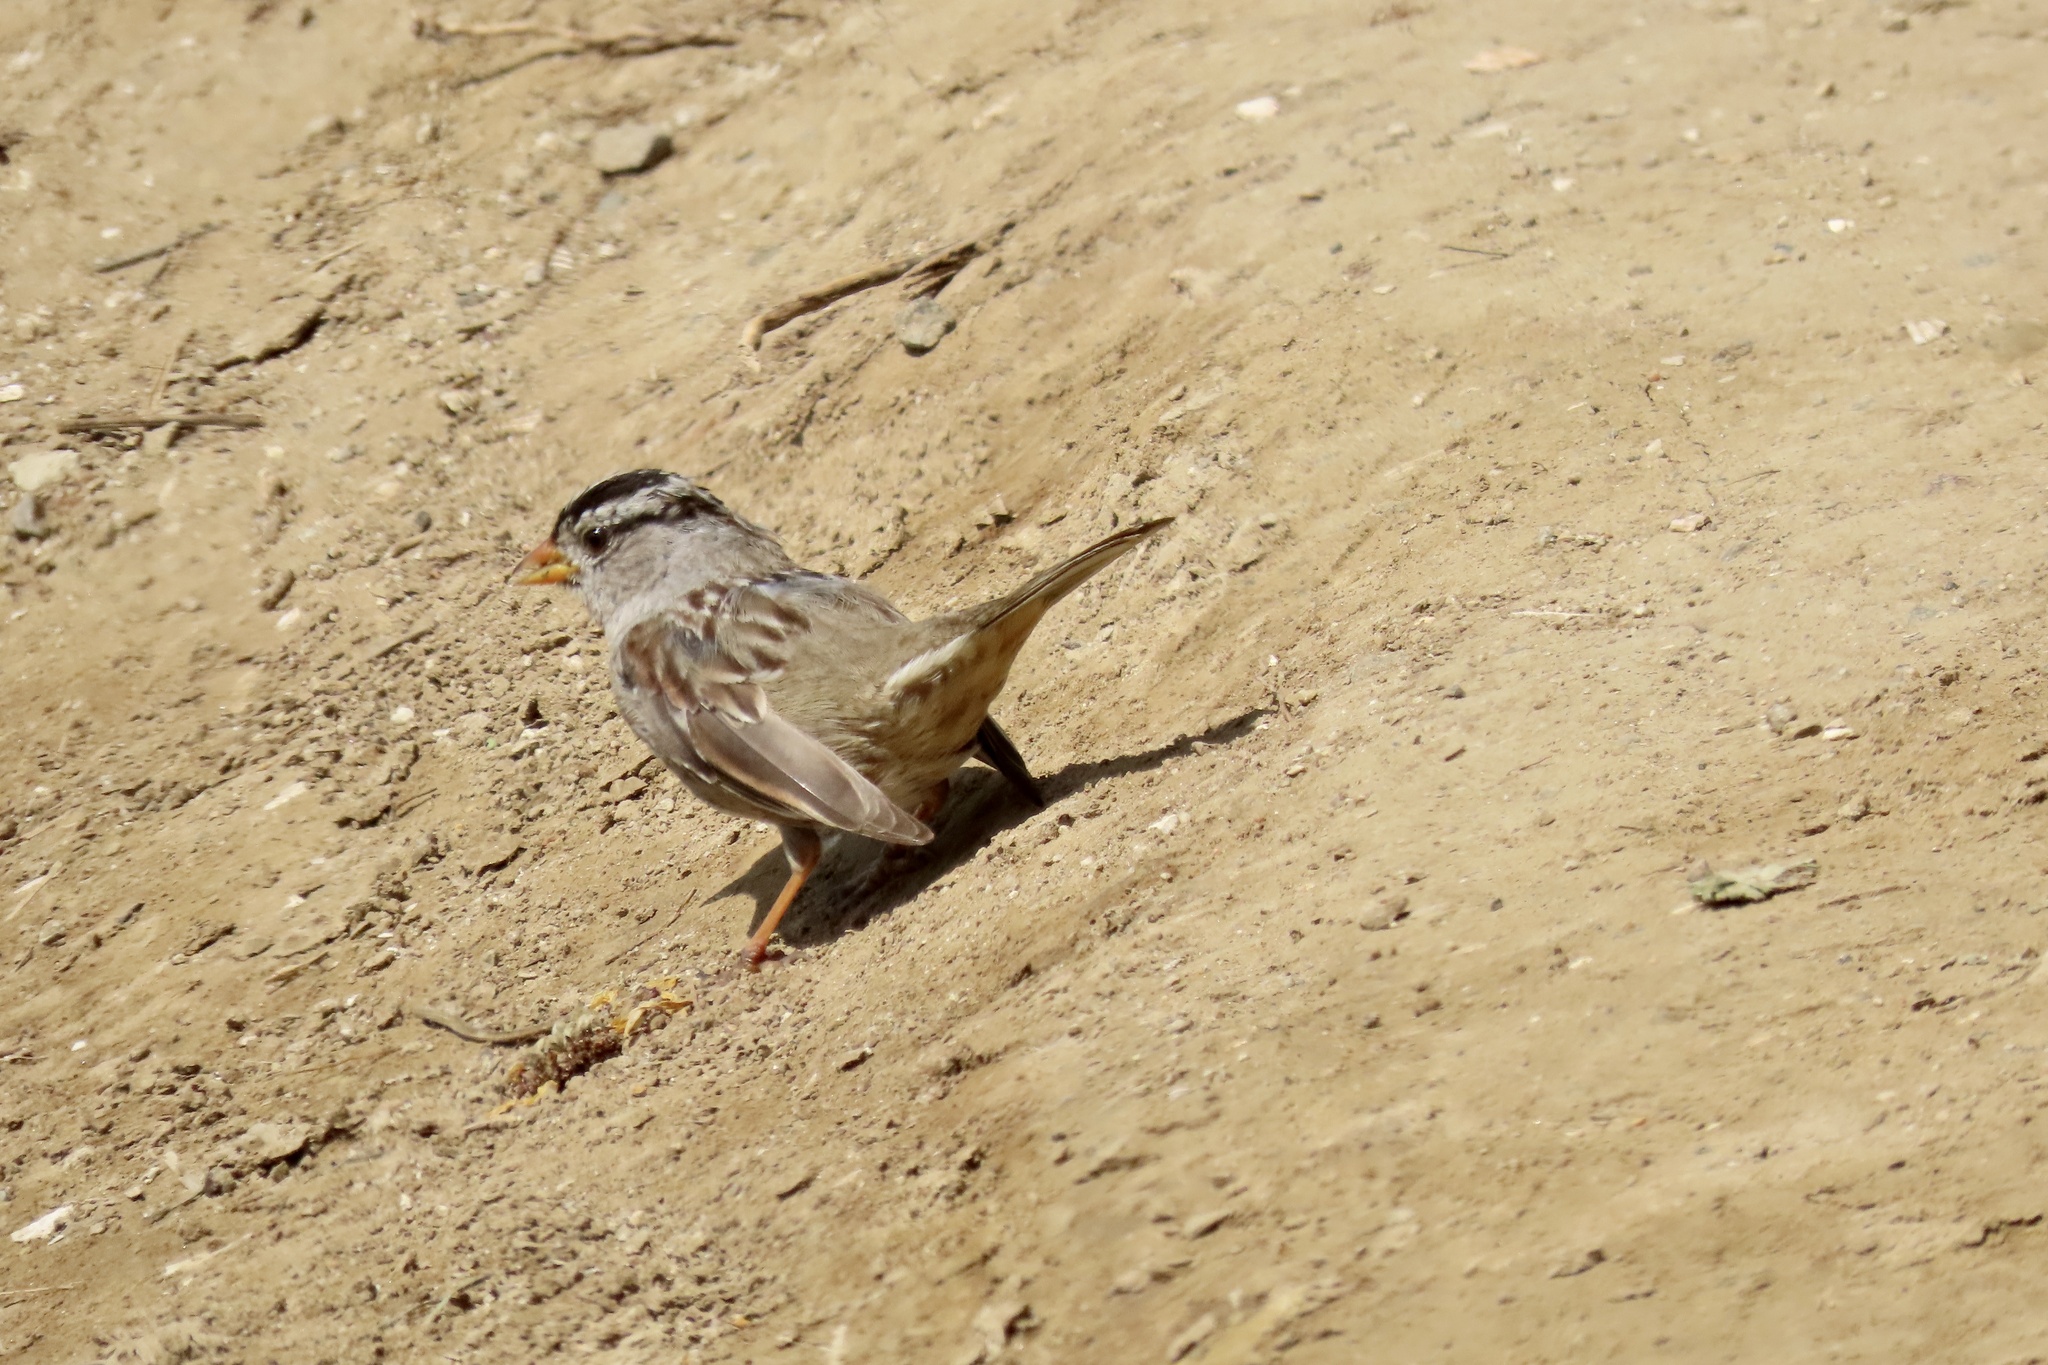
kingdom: Animalia
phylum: Chordata
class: Aves
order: Passeriformes
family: Passerellidae
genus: Zonotrichia
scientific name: Zonotrichia leucophrys
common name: White-crowned sparrow
